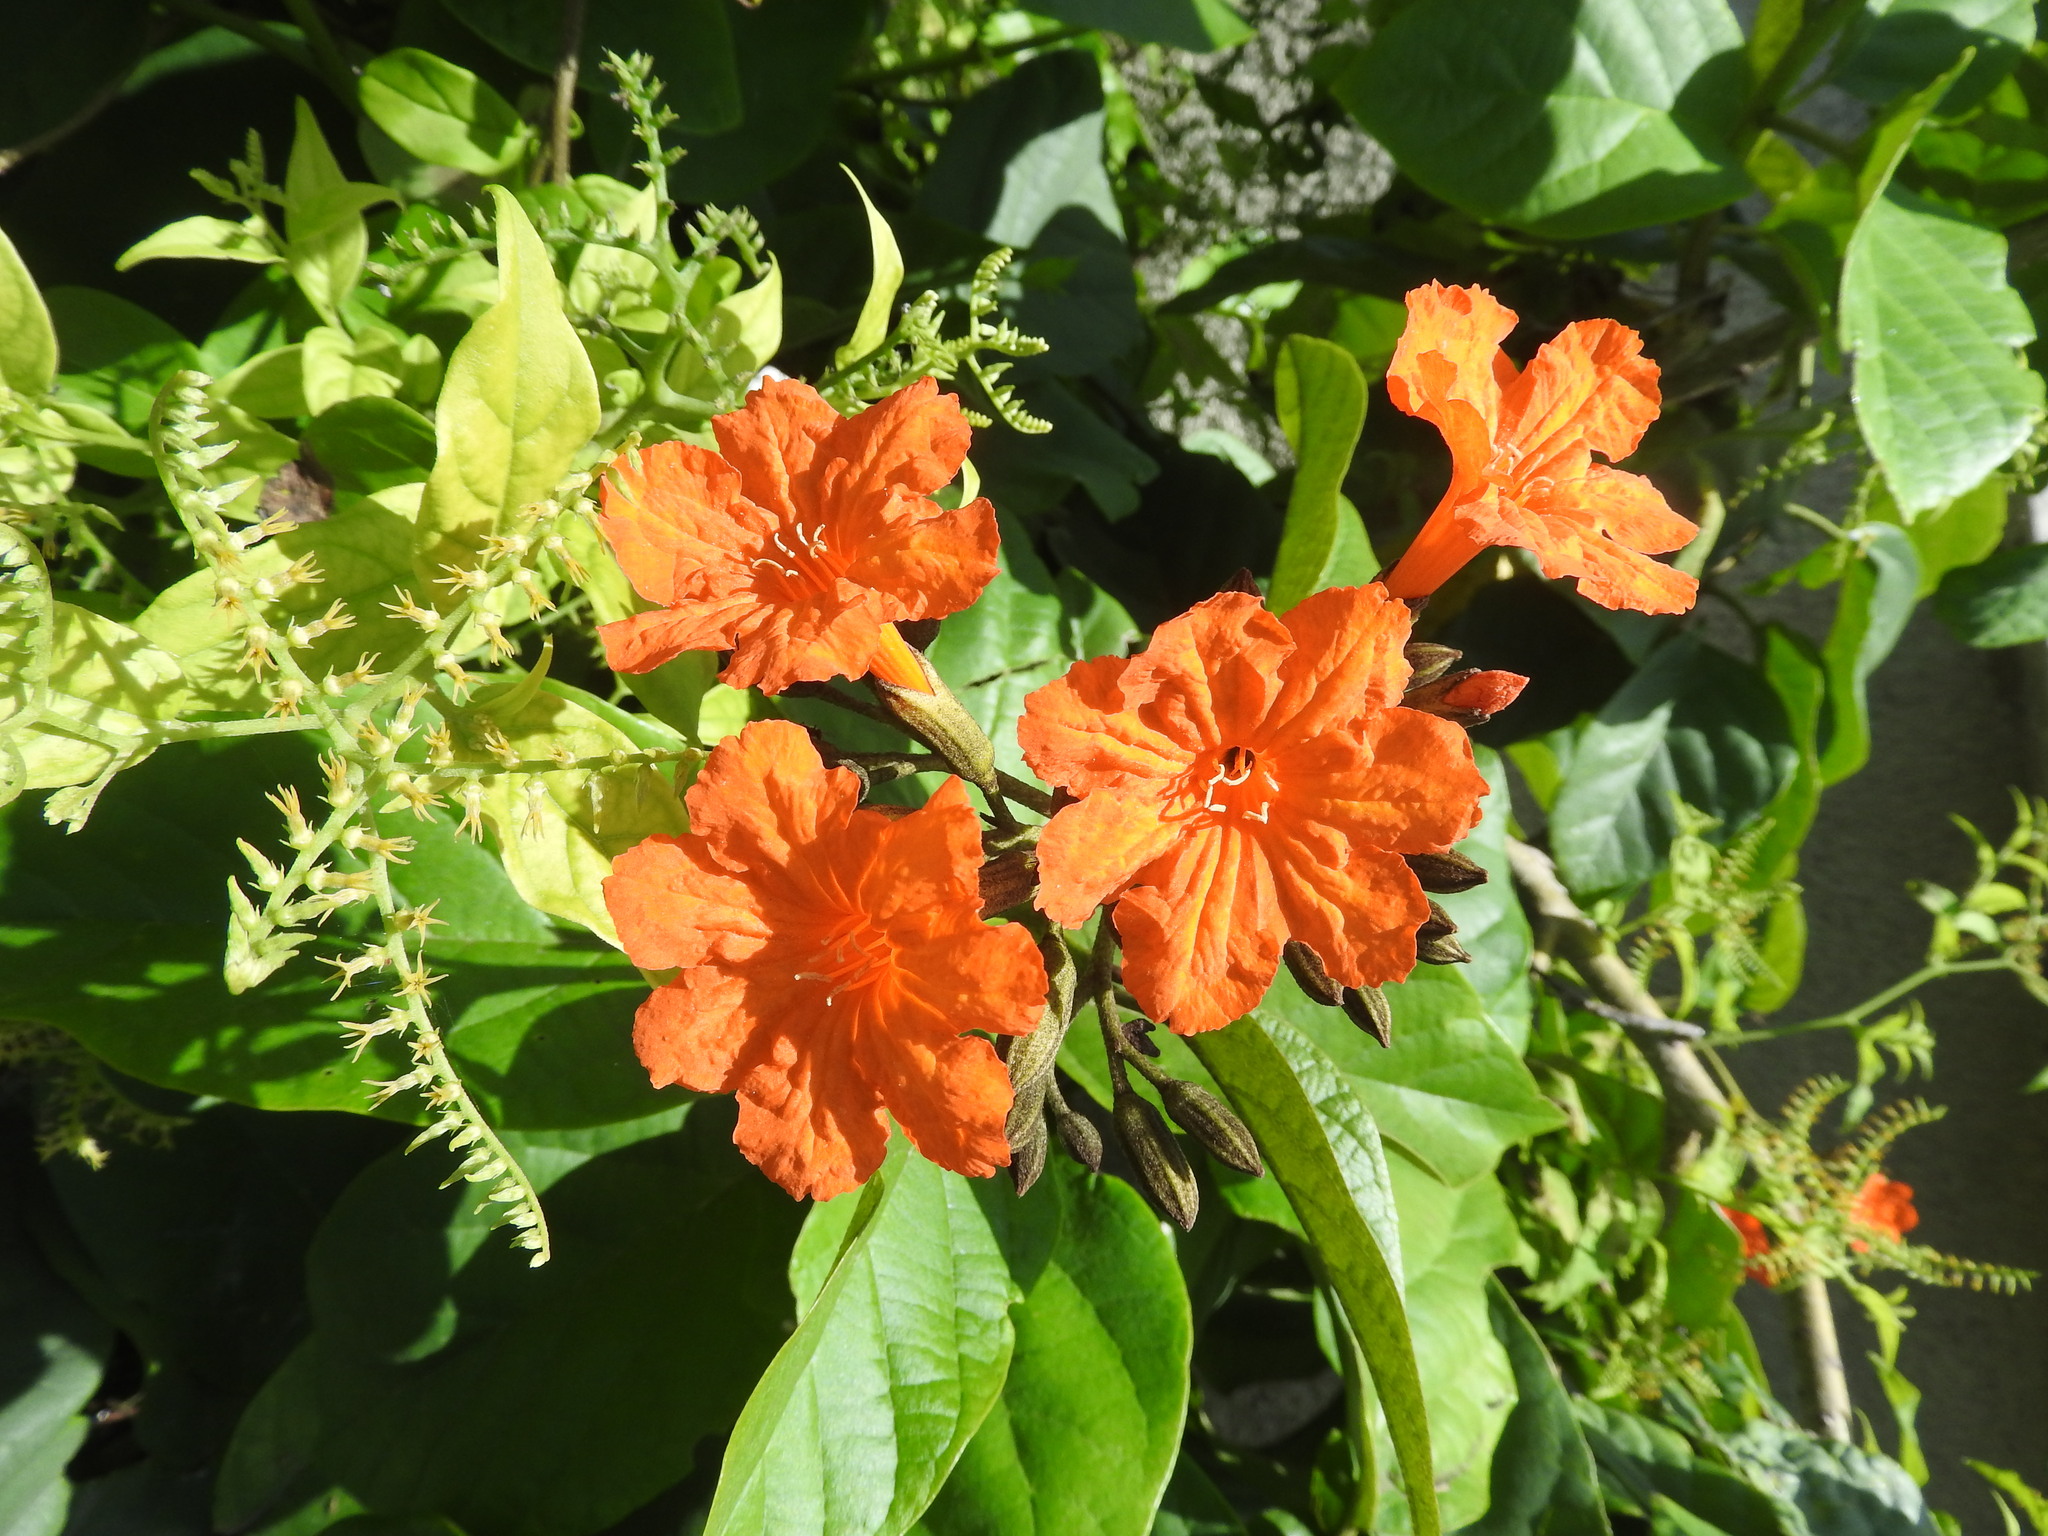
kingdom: Plantae
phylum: Tracheophyta
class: Magnoliopsida
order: Boraginales
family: Cordiaceae
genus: Cordia
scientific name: Cordia sebestena
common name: Largeleaf geigertree
